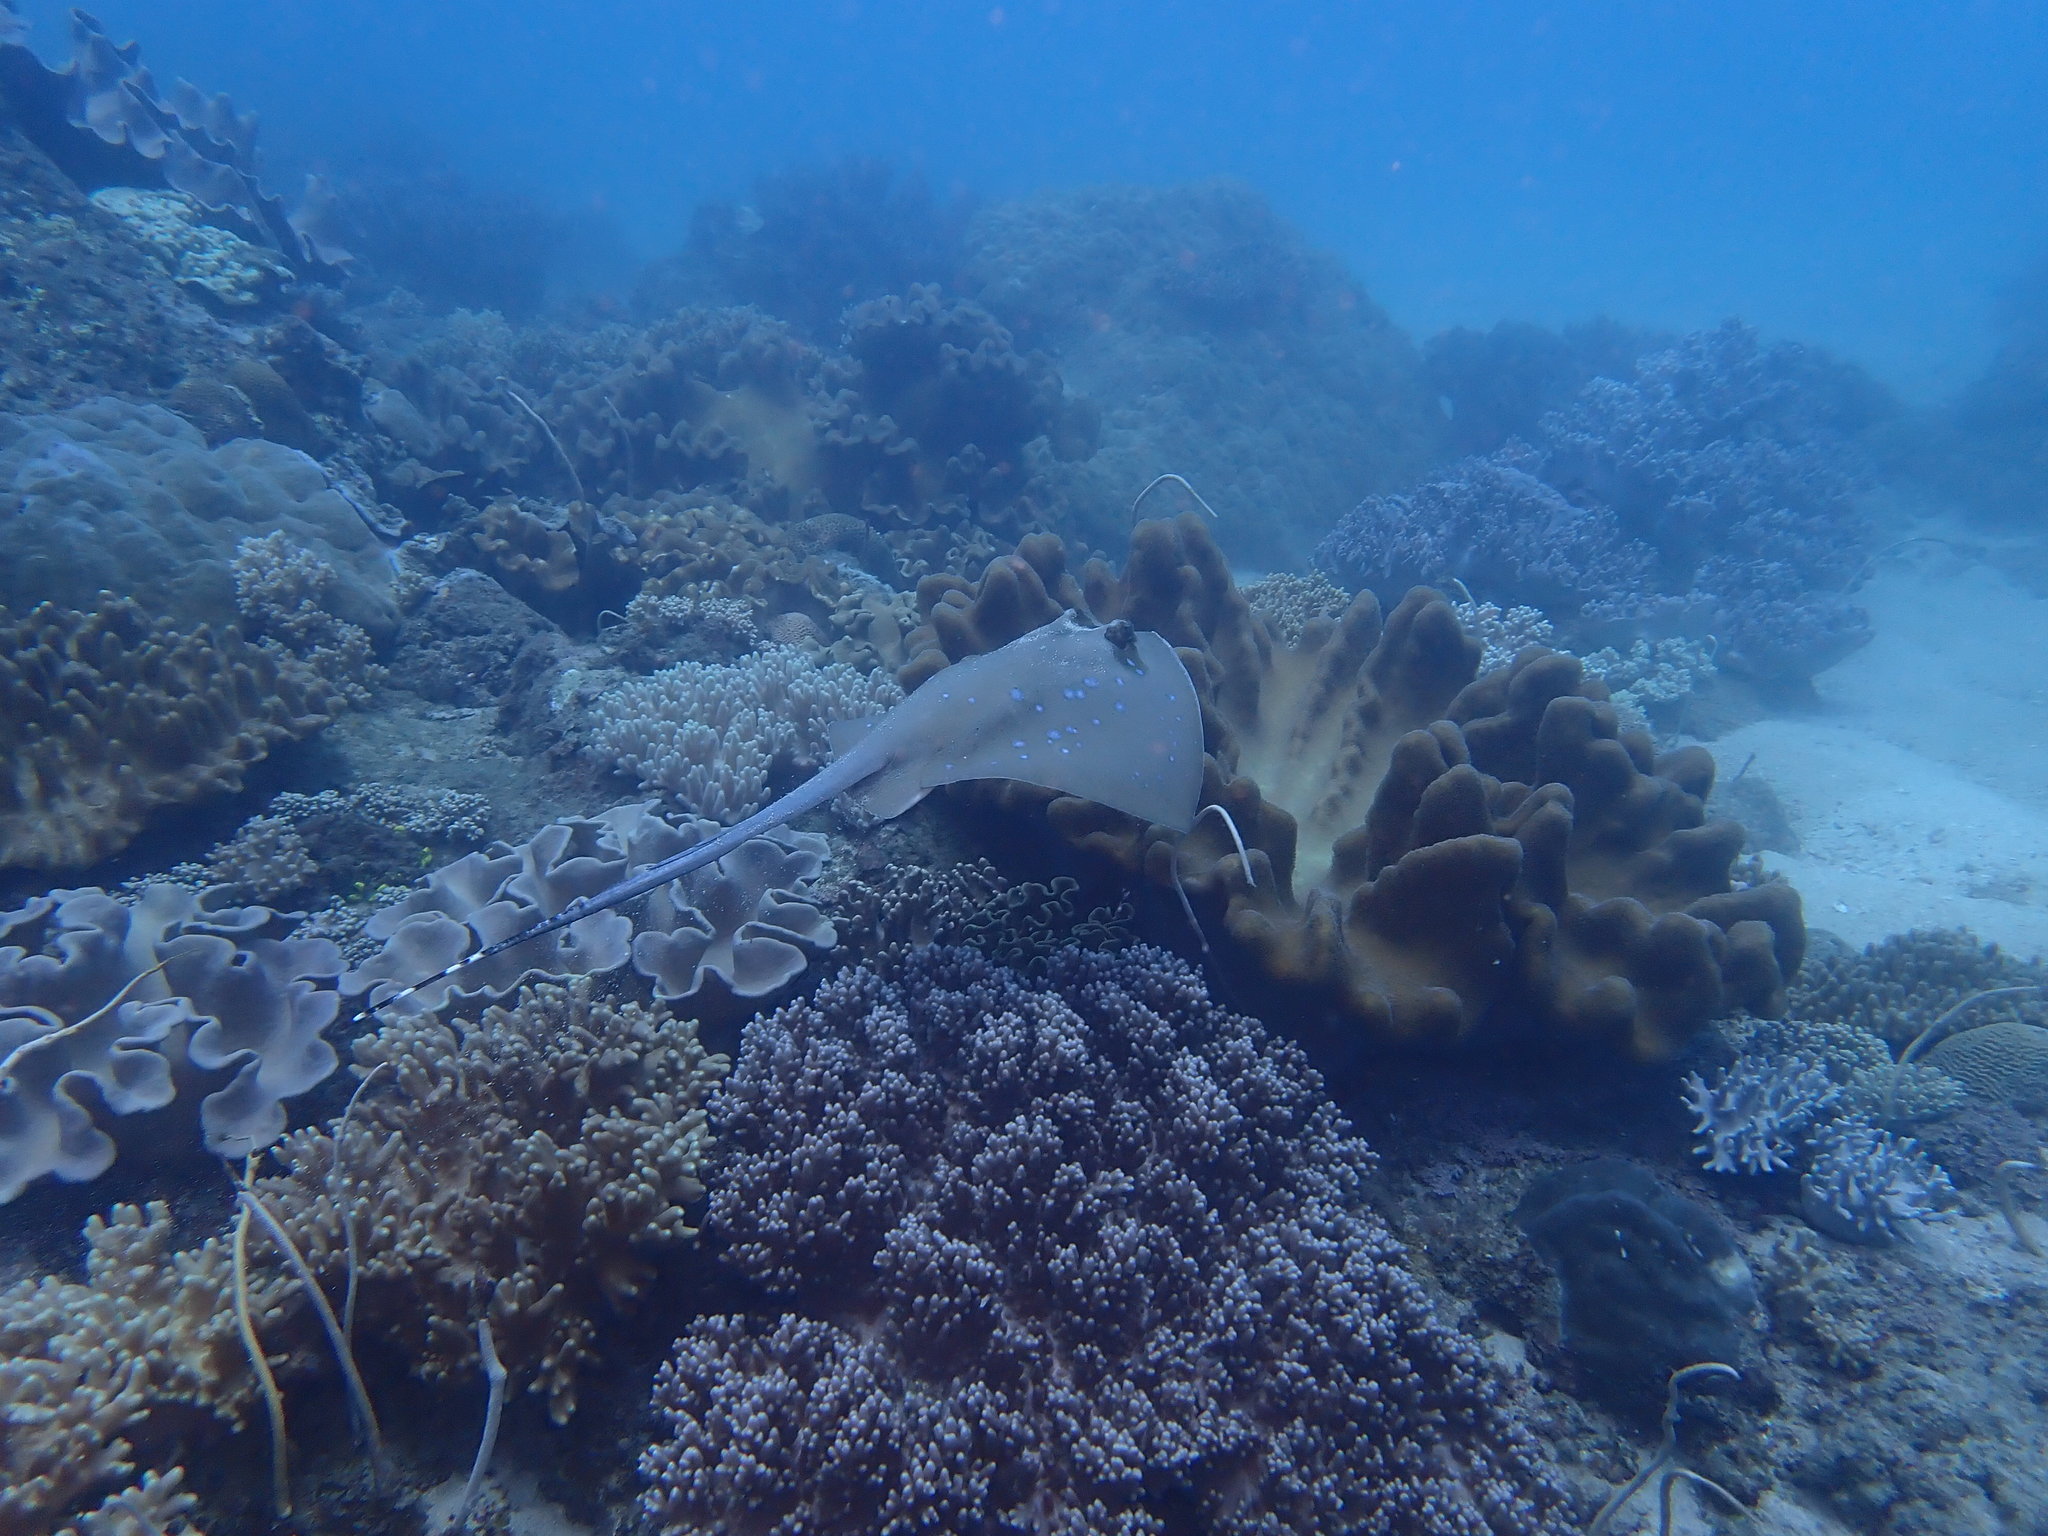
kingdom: Animalia
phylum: Chordata
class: Elasmobranchii
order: Myliobatiformes
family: Dasyatidae
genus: Neotrygon
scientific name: Neotrygon orientale
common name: Oriental bluespotted maskray
